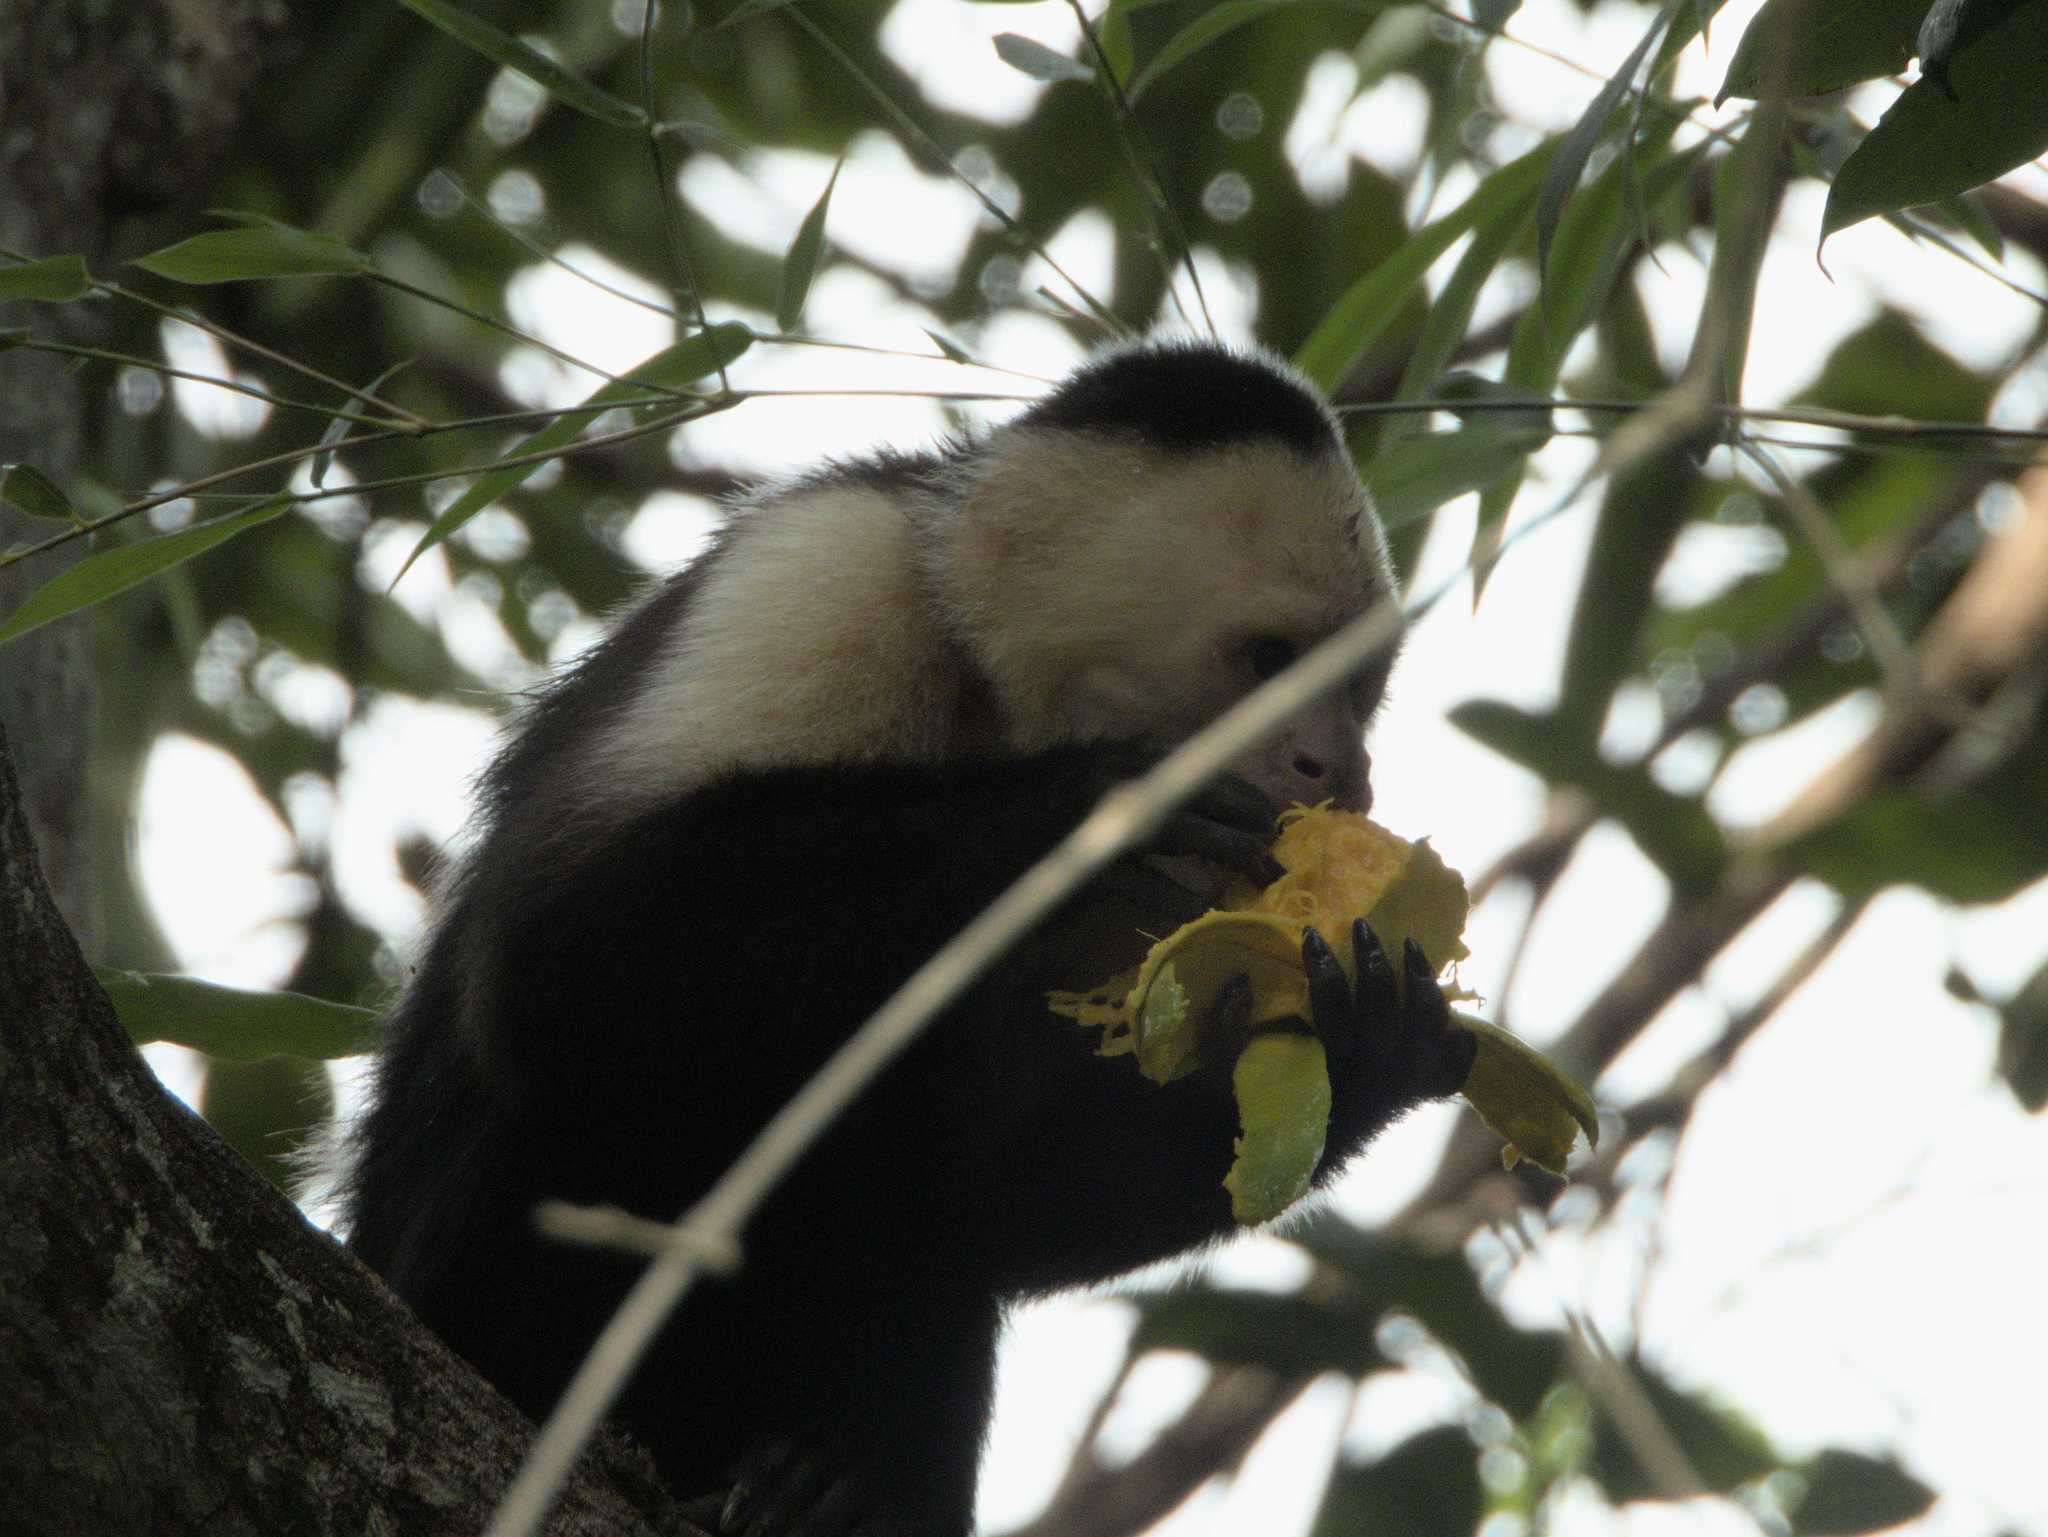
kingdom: Animalia
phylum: Chordata
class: Mammalia
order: Primates
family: Cebidae
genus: Cebus
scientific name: Cebus imitator
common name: Panamanian white-faced capuchin
